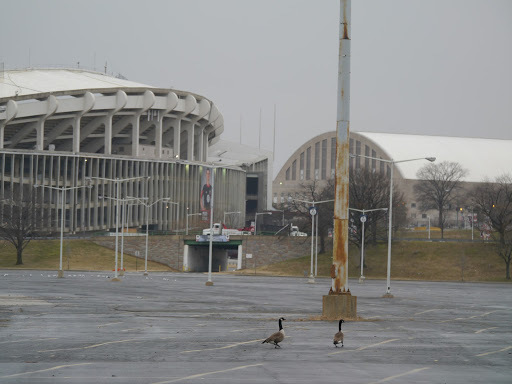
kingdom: Animalia
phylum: Chordata
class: Aves
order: Anseriformes
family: Anatidae
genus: Branta
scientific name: Branta canadensis
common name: Canada goose
